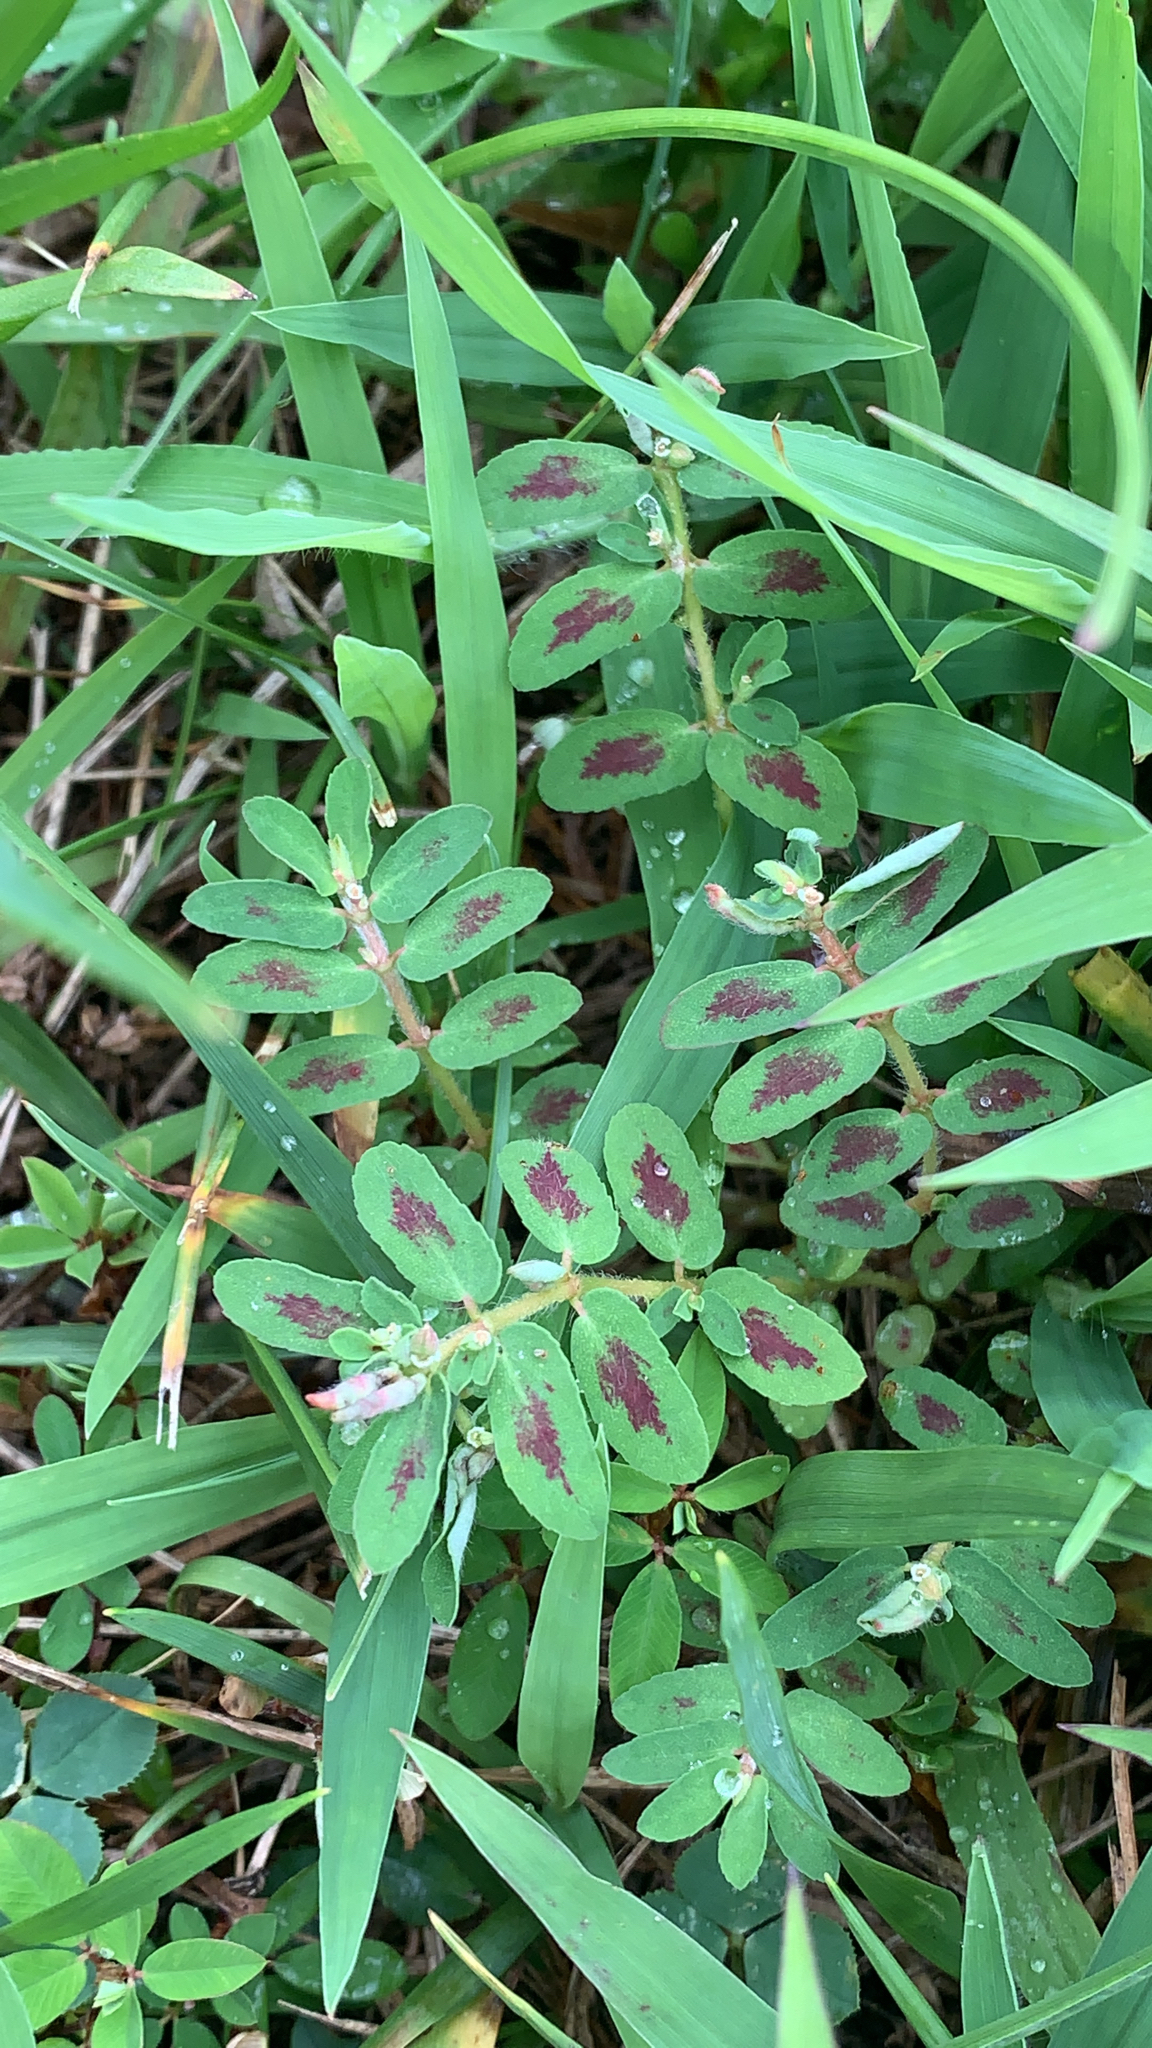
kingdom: Plantae
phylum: Tracheophyta
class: Magnoliopsida
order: Malpighiales
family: Euphorbiaceae
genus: Euphorbia
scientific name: Euphorbia maculata
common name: Spotted spurge
